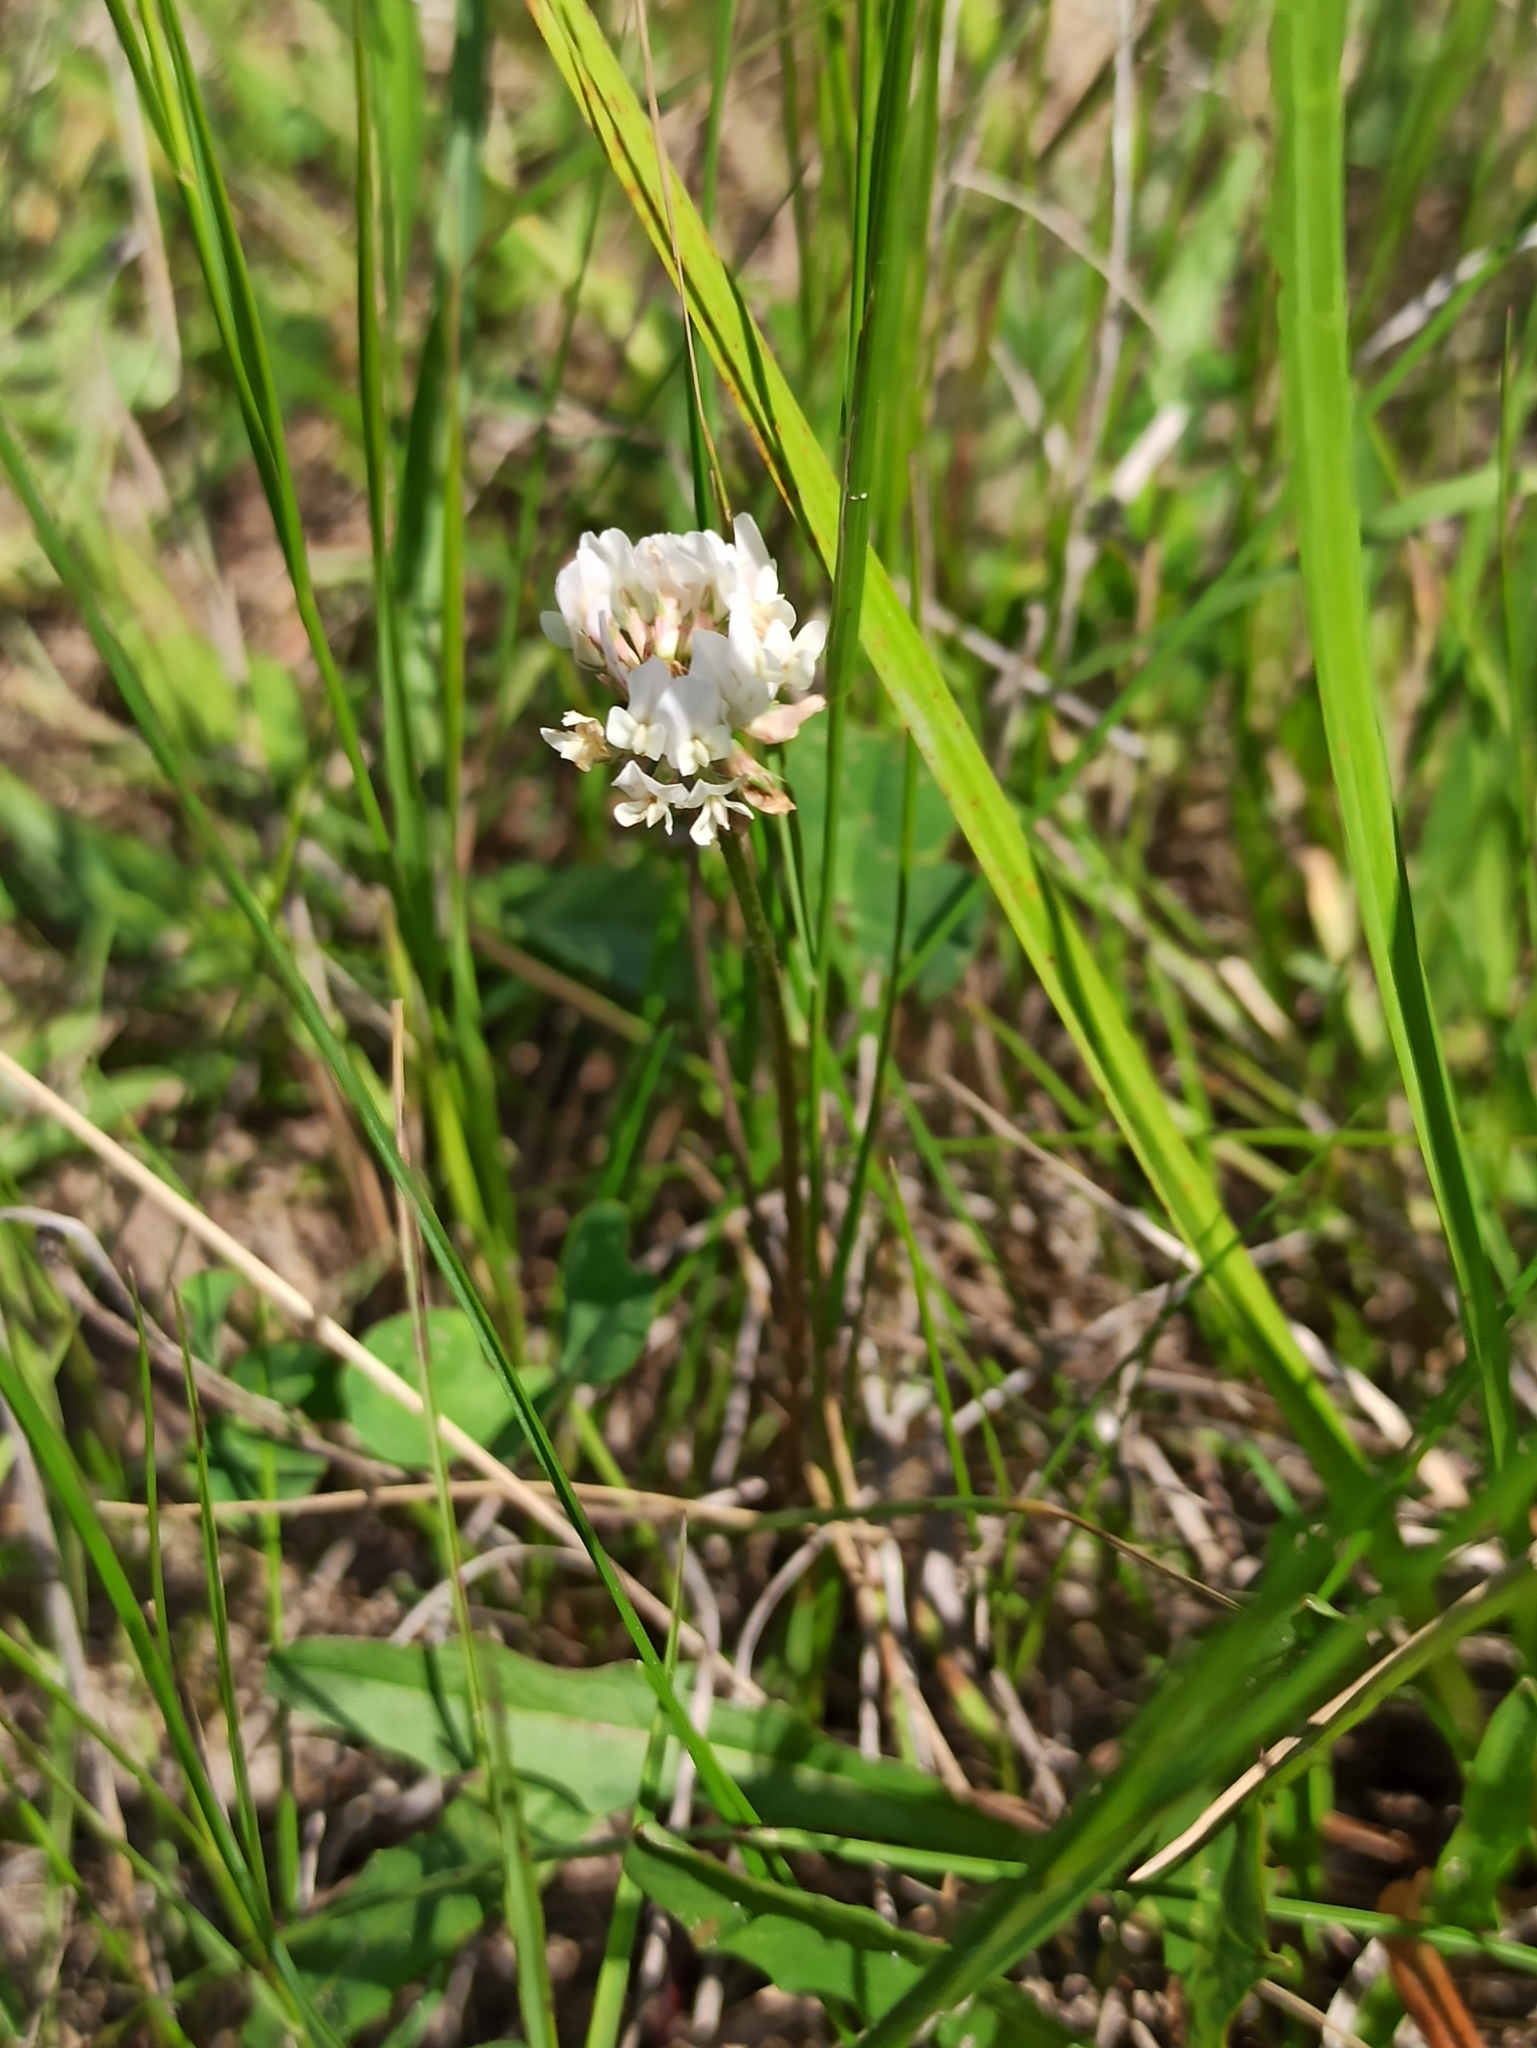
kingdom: Plantae
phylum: Tracheophyta
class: Magnoliopsida
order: Fabales
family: Fabaceae
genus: Trifolium
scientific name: Trifolium repens
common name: White clover
